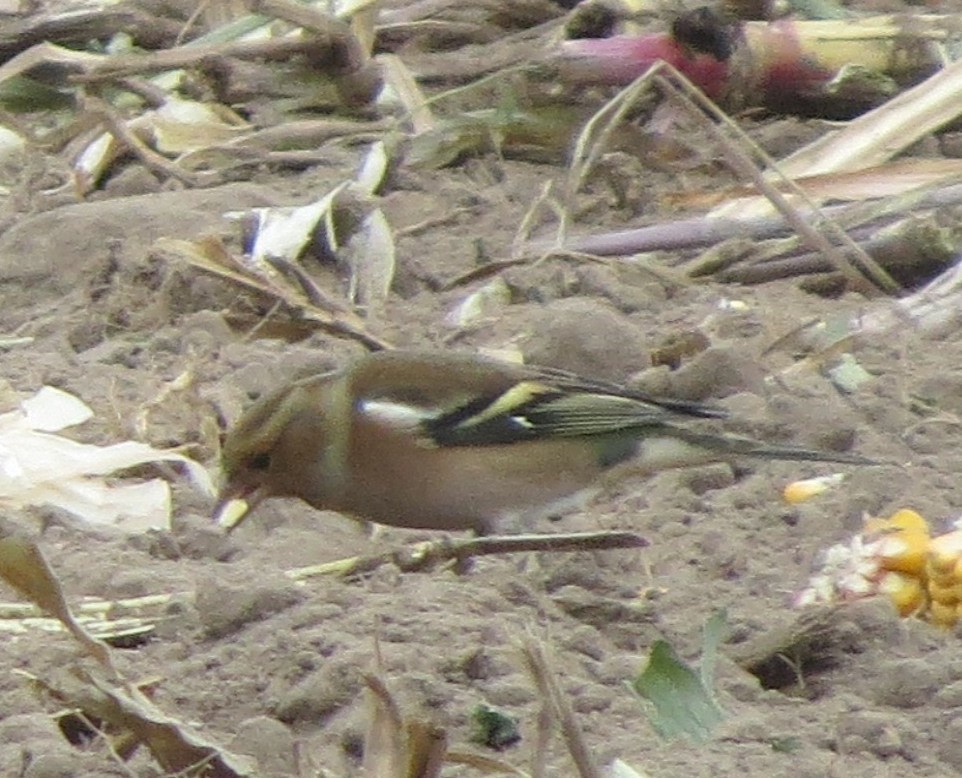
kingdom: Animalia
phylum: Chordata
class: Aves
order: Passeriformes
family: Fringillidae
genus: Fringilla
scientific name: Fringilla coelebs
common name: Common chaffinch
